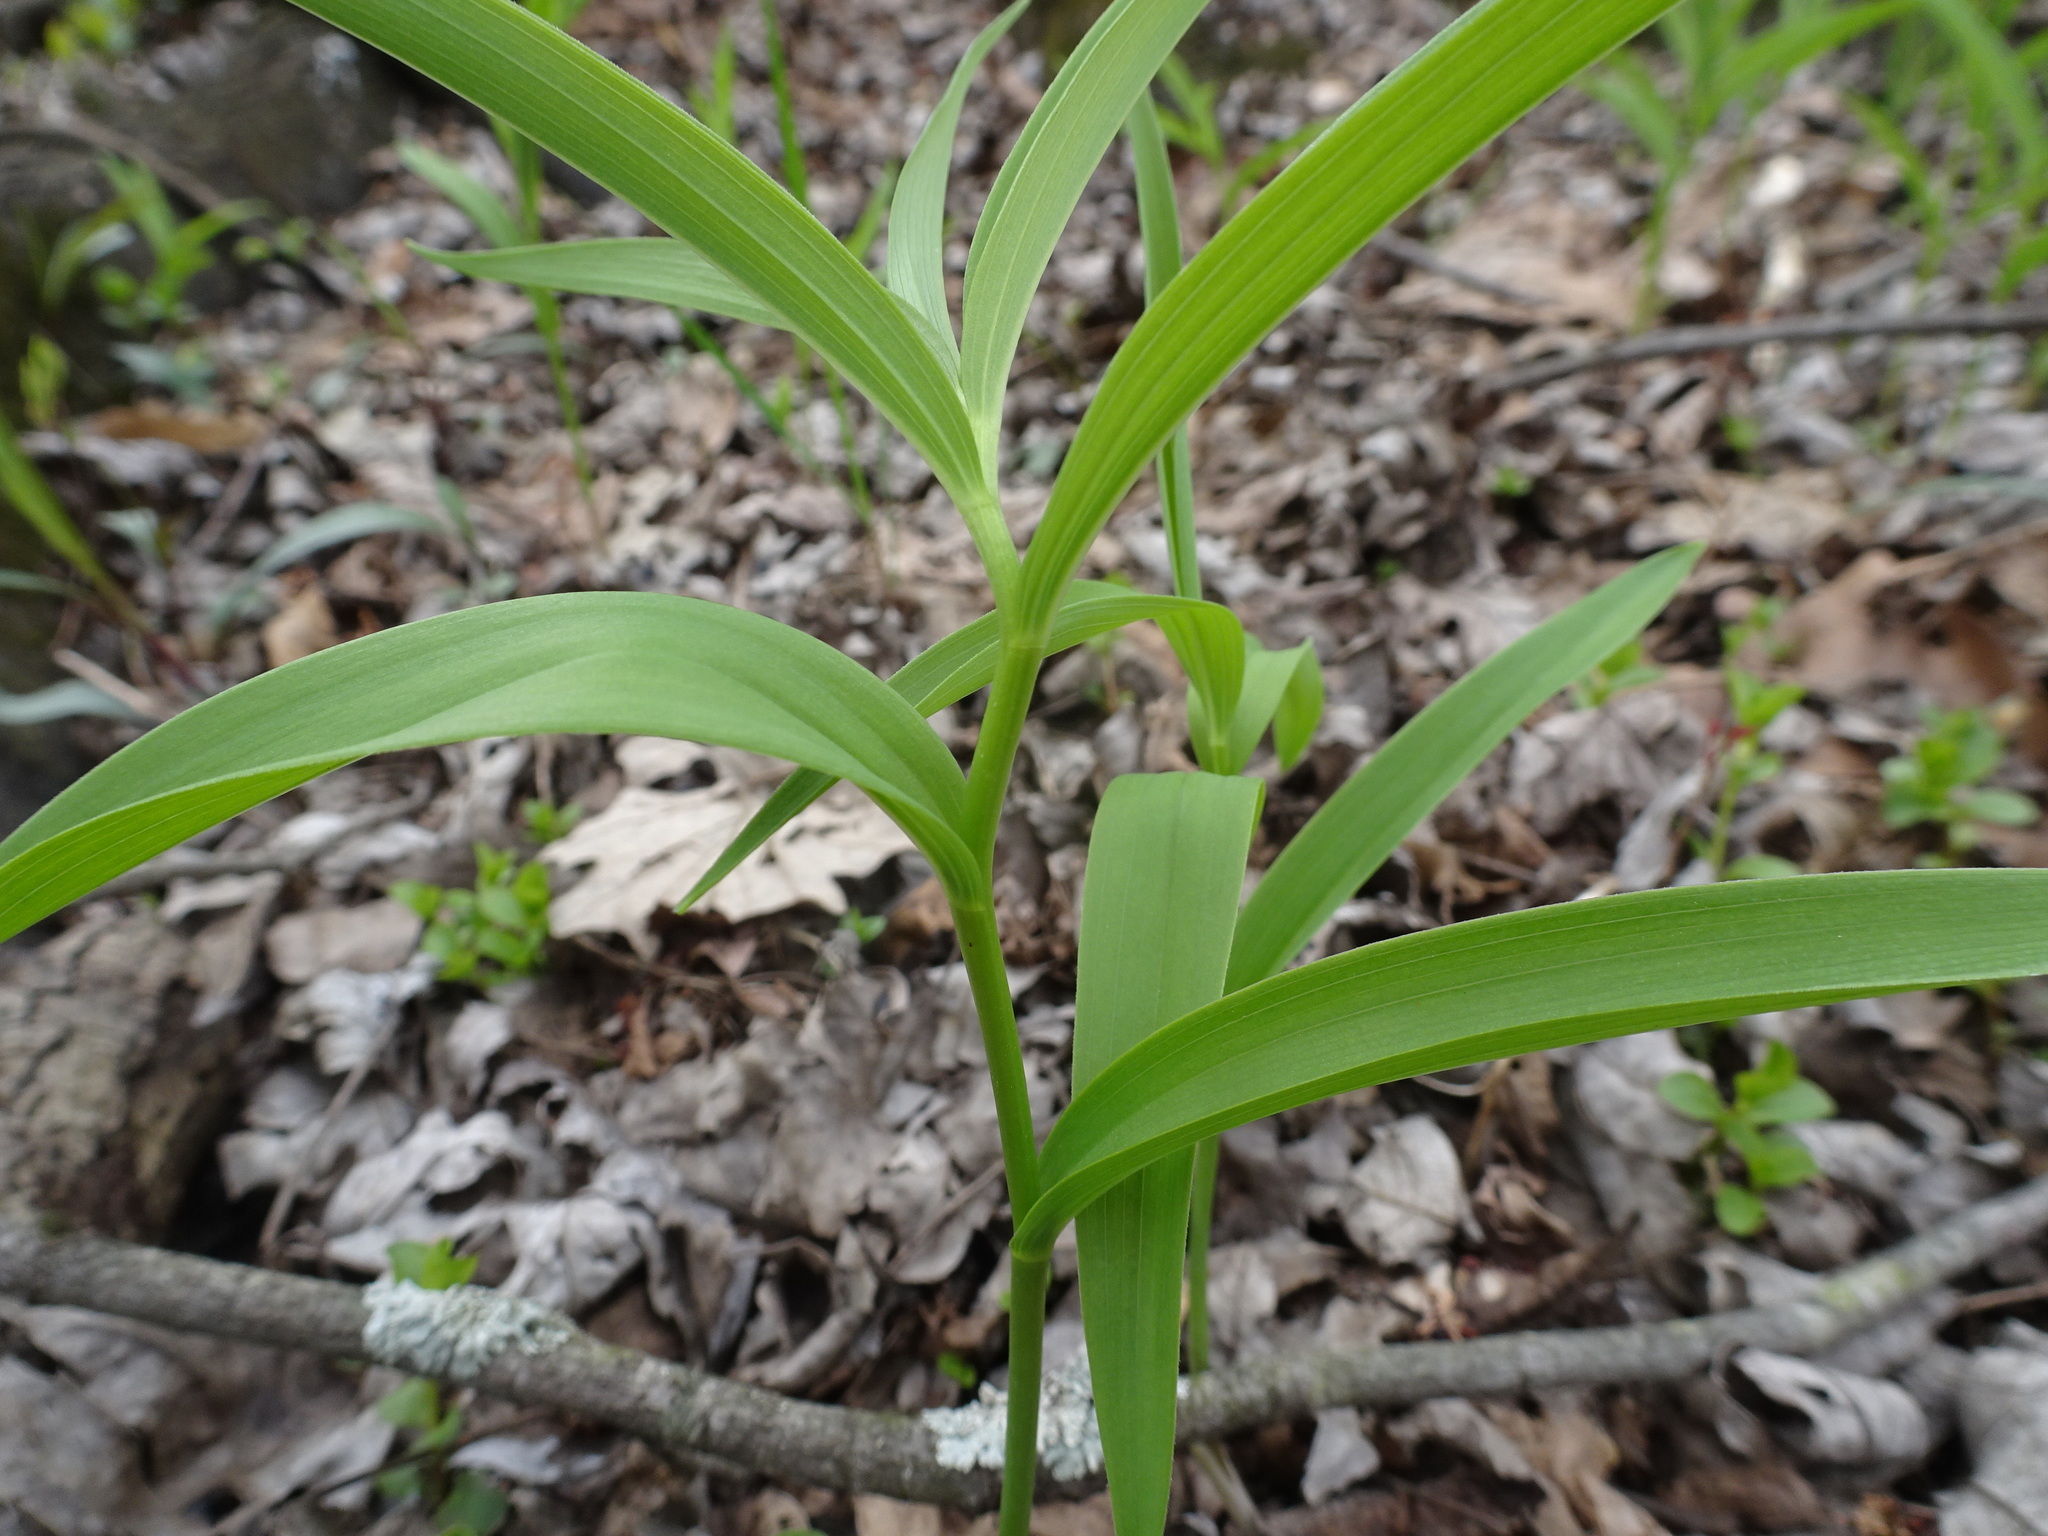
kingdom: Plantae
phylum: Tracheophyta
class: Liliopsida
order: Asparagales
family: Asparagaceae
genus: Maianthemum
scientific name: Maianthemum stellatum
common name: Little false solomon's seal
